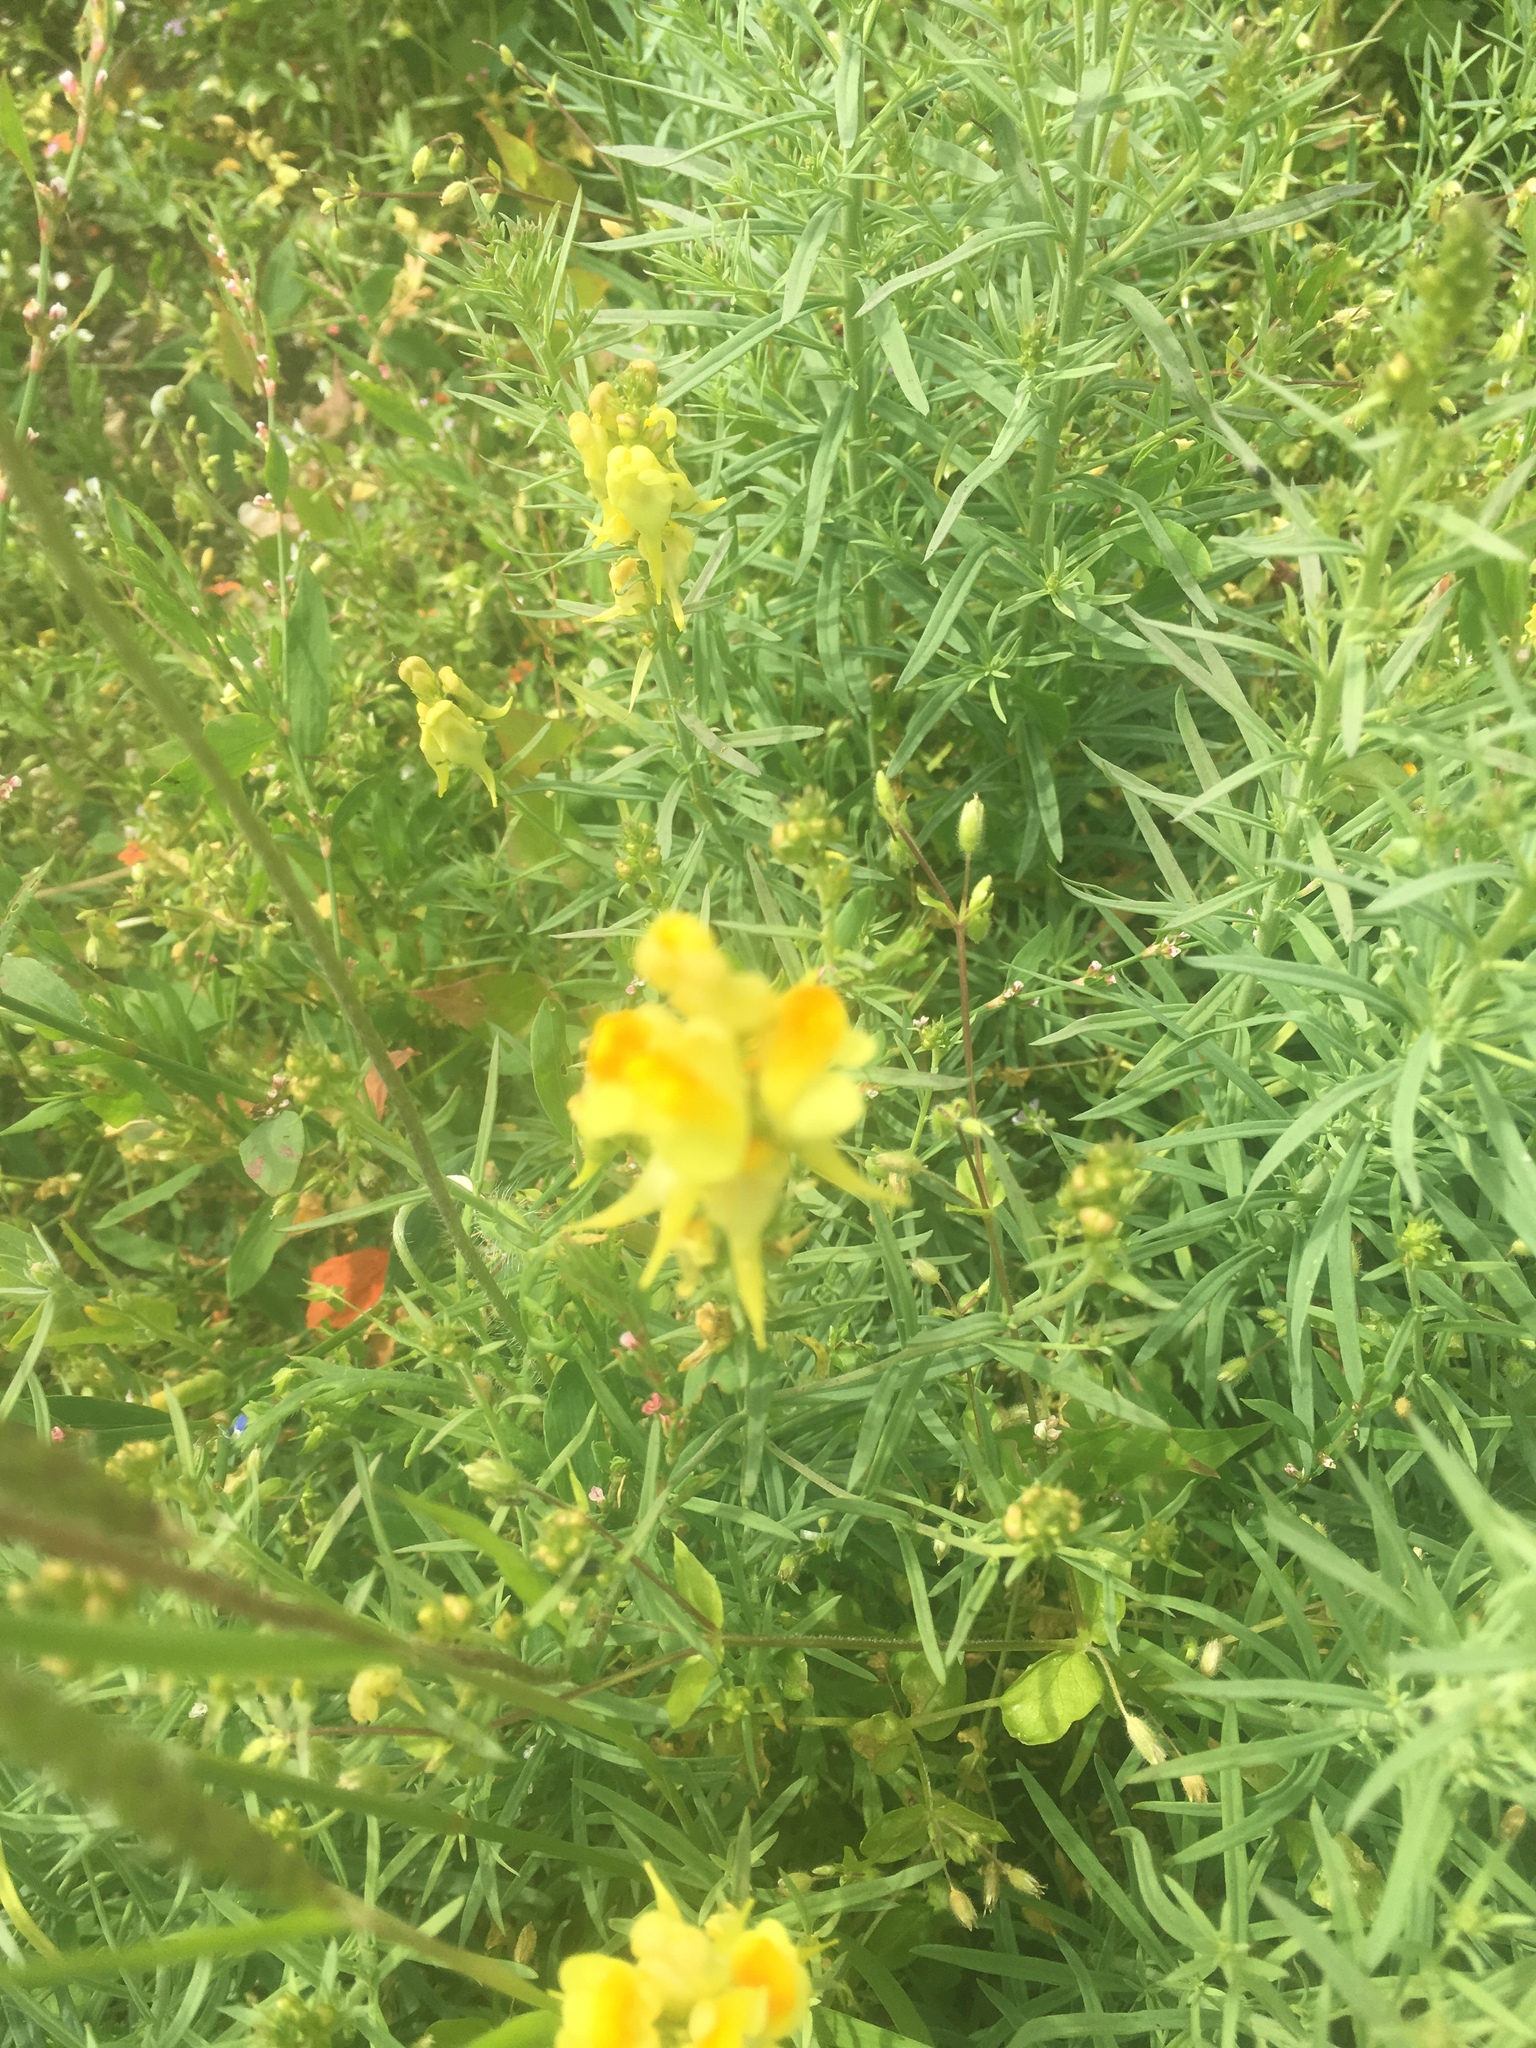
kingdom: Plantae
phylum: Tracheophyta
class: Magnoliopsida
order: Lamiales
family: Plantaginaceae
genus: Linaria
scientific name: Linaria vulgaris
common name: Butter and eggs
